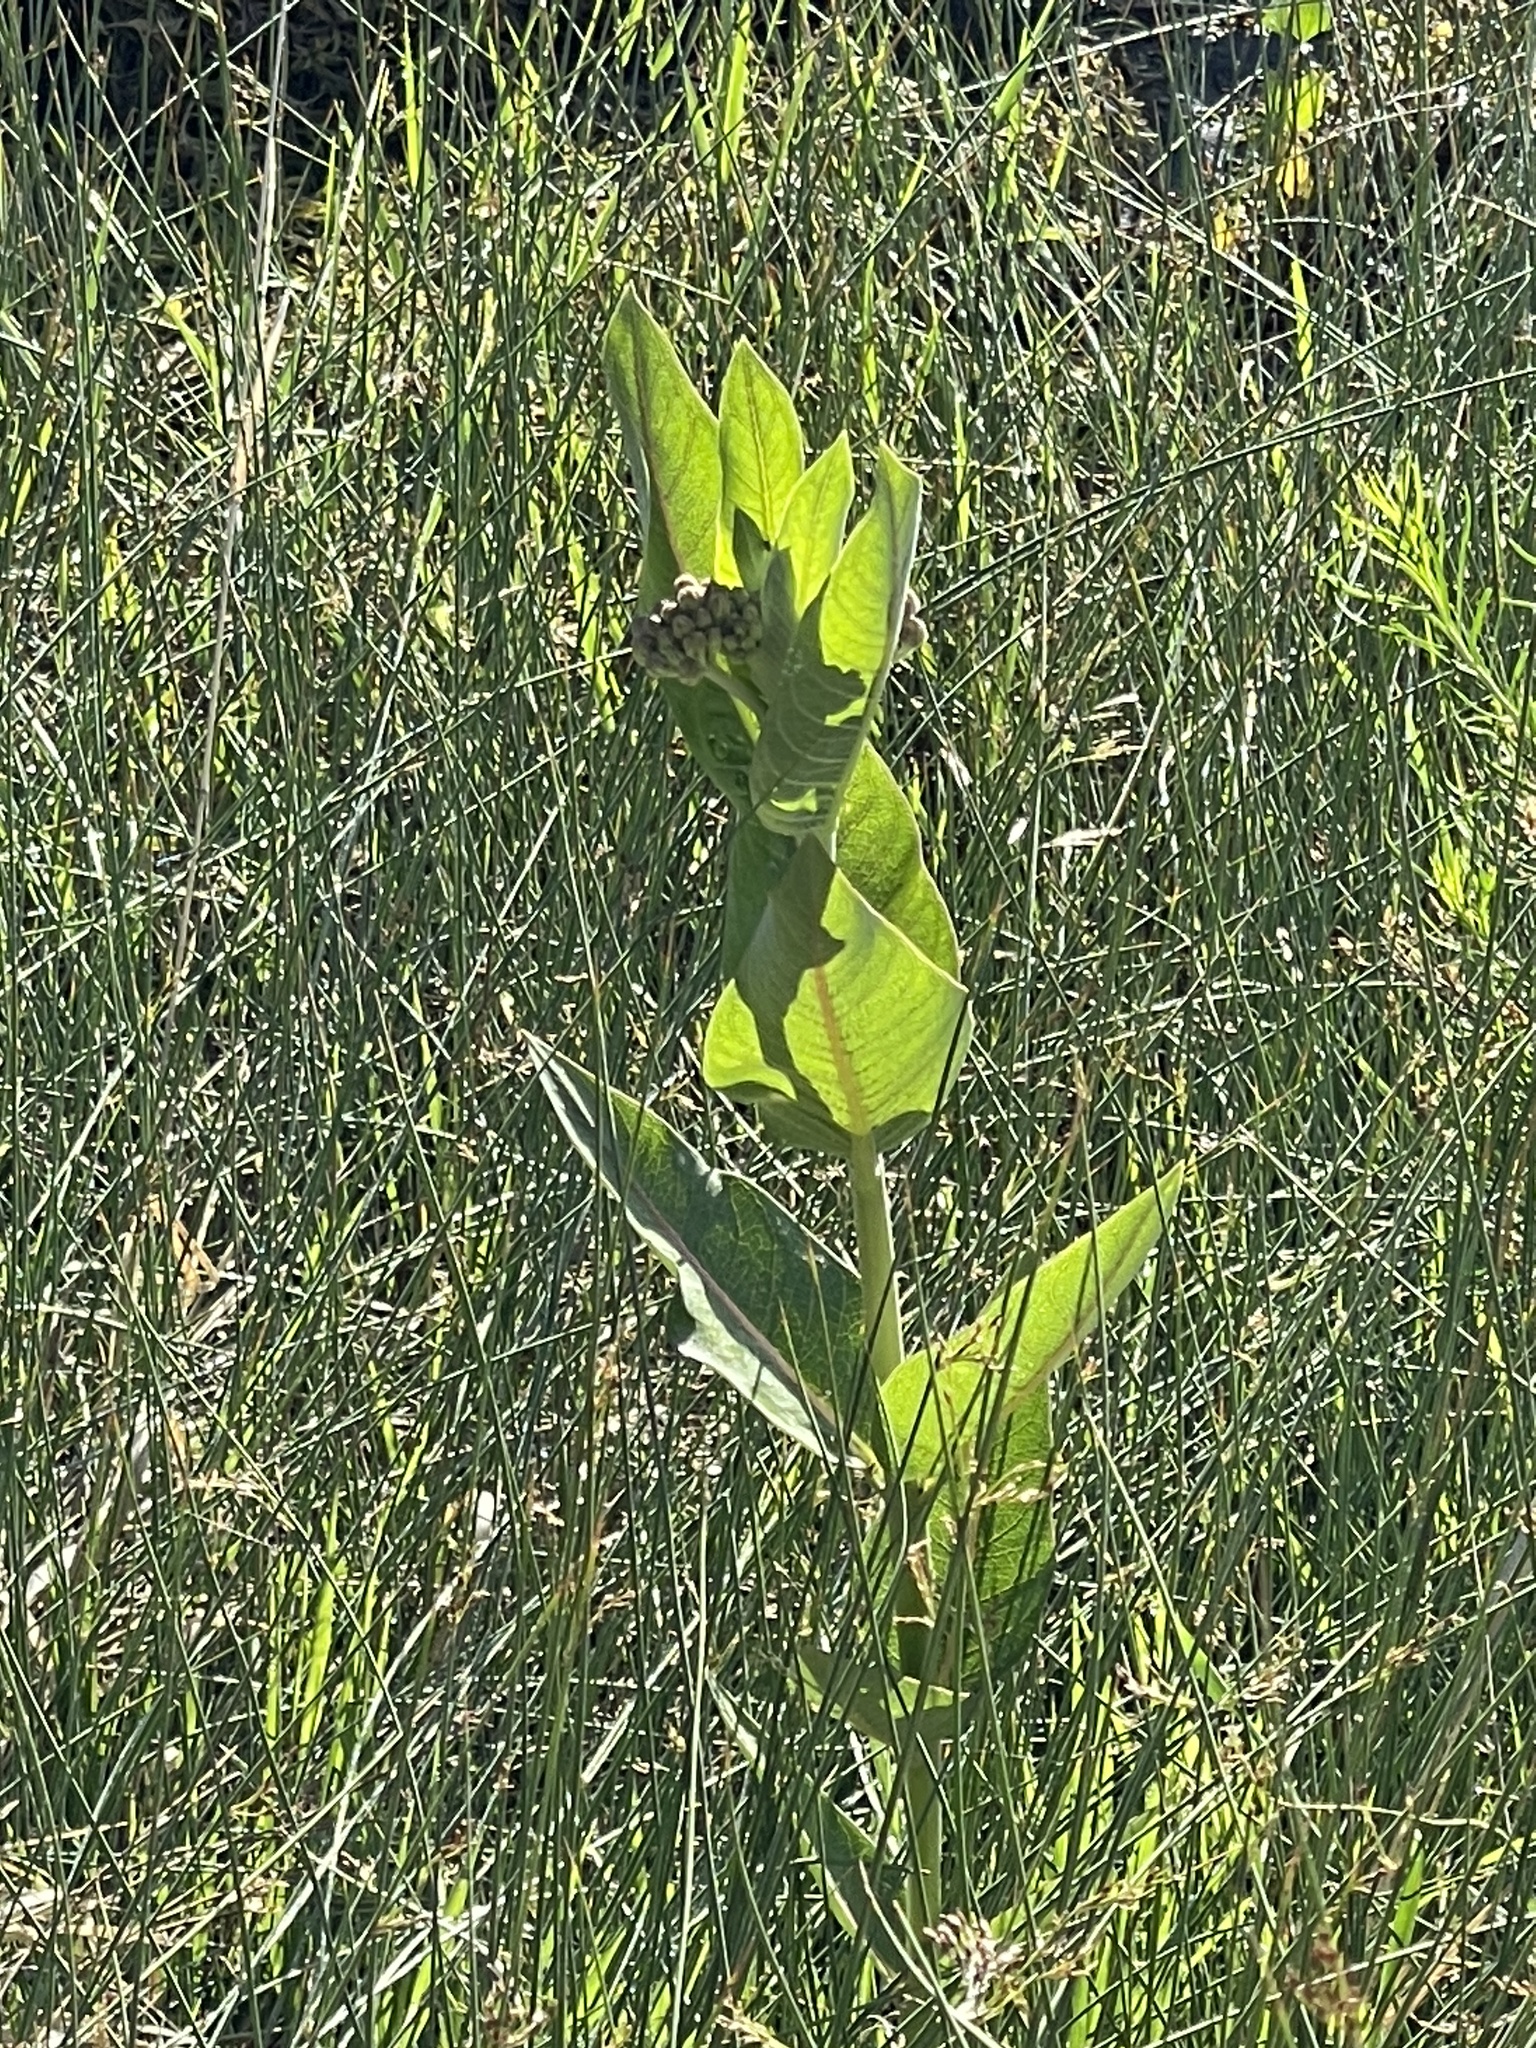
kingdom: Plantae
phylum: Tracheophyta
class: Magnoliopsida
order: Gentianales
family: Apocynaceae
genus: Asclepias
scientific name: Asclepias speciosa
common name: Showy milkweed
